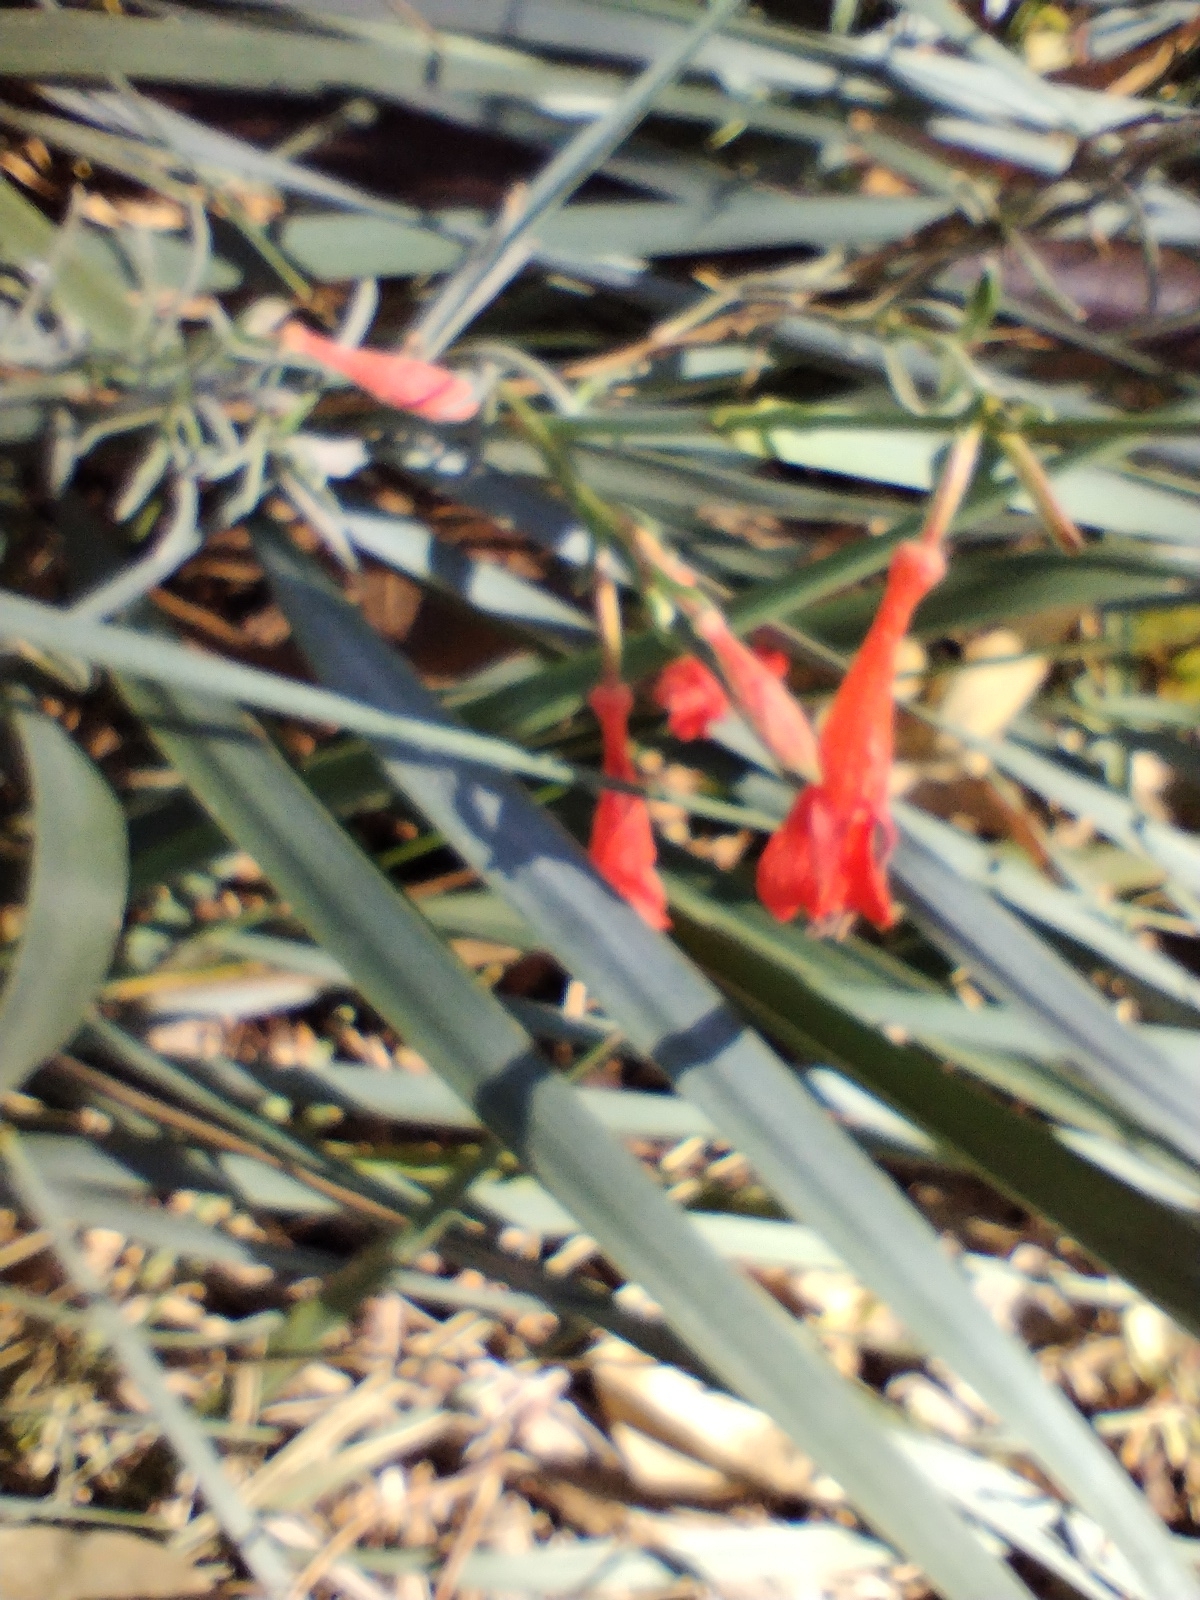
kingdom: Plantae
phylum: Tracheophyta
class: Magnoliopsida
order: Myrtales
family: Onagraceae
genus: Epilobium
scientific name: Epilobium canum
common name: California-fuchsia
